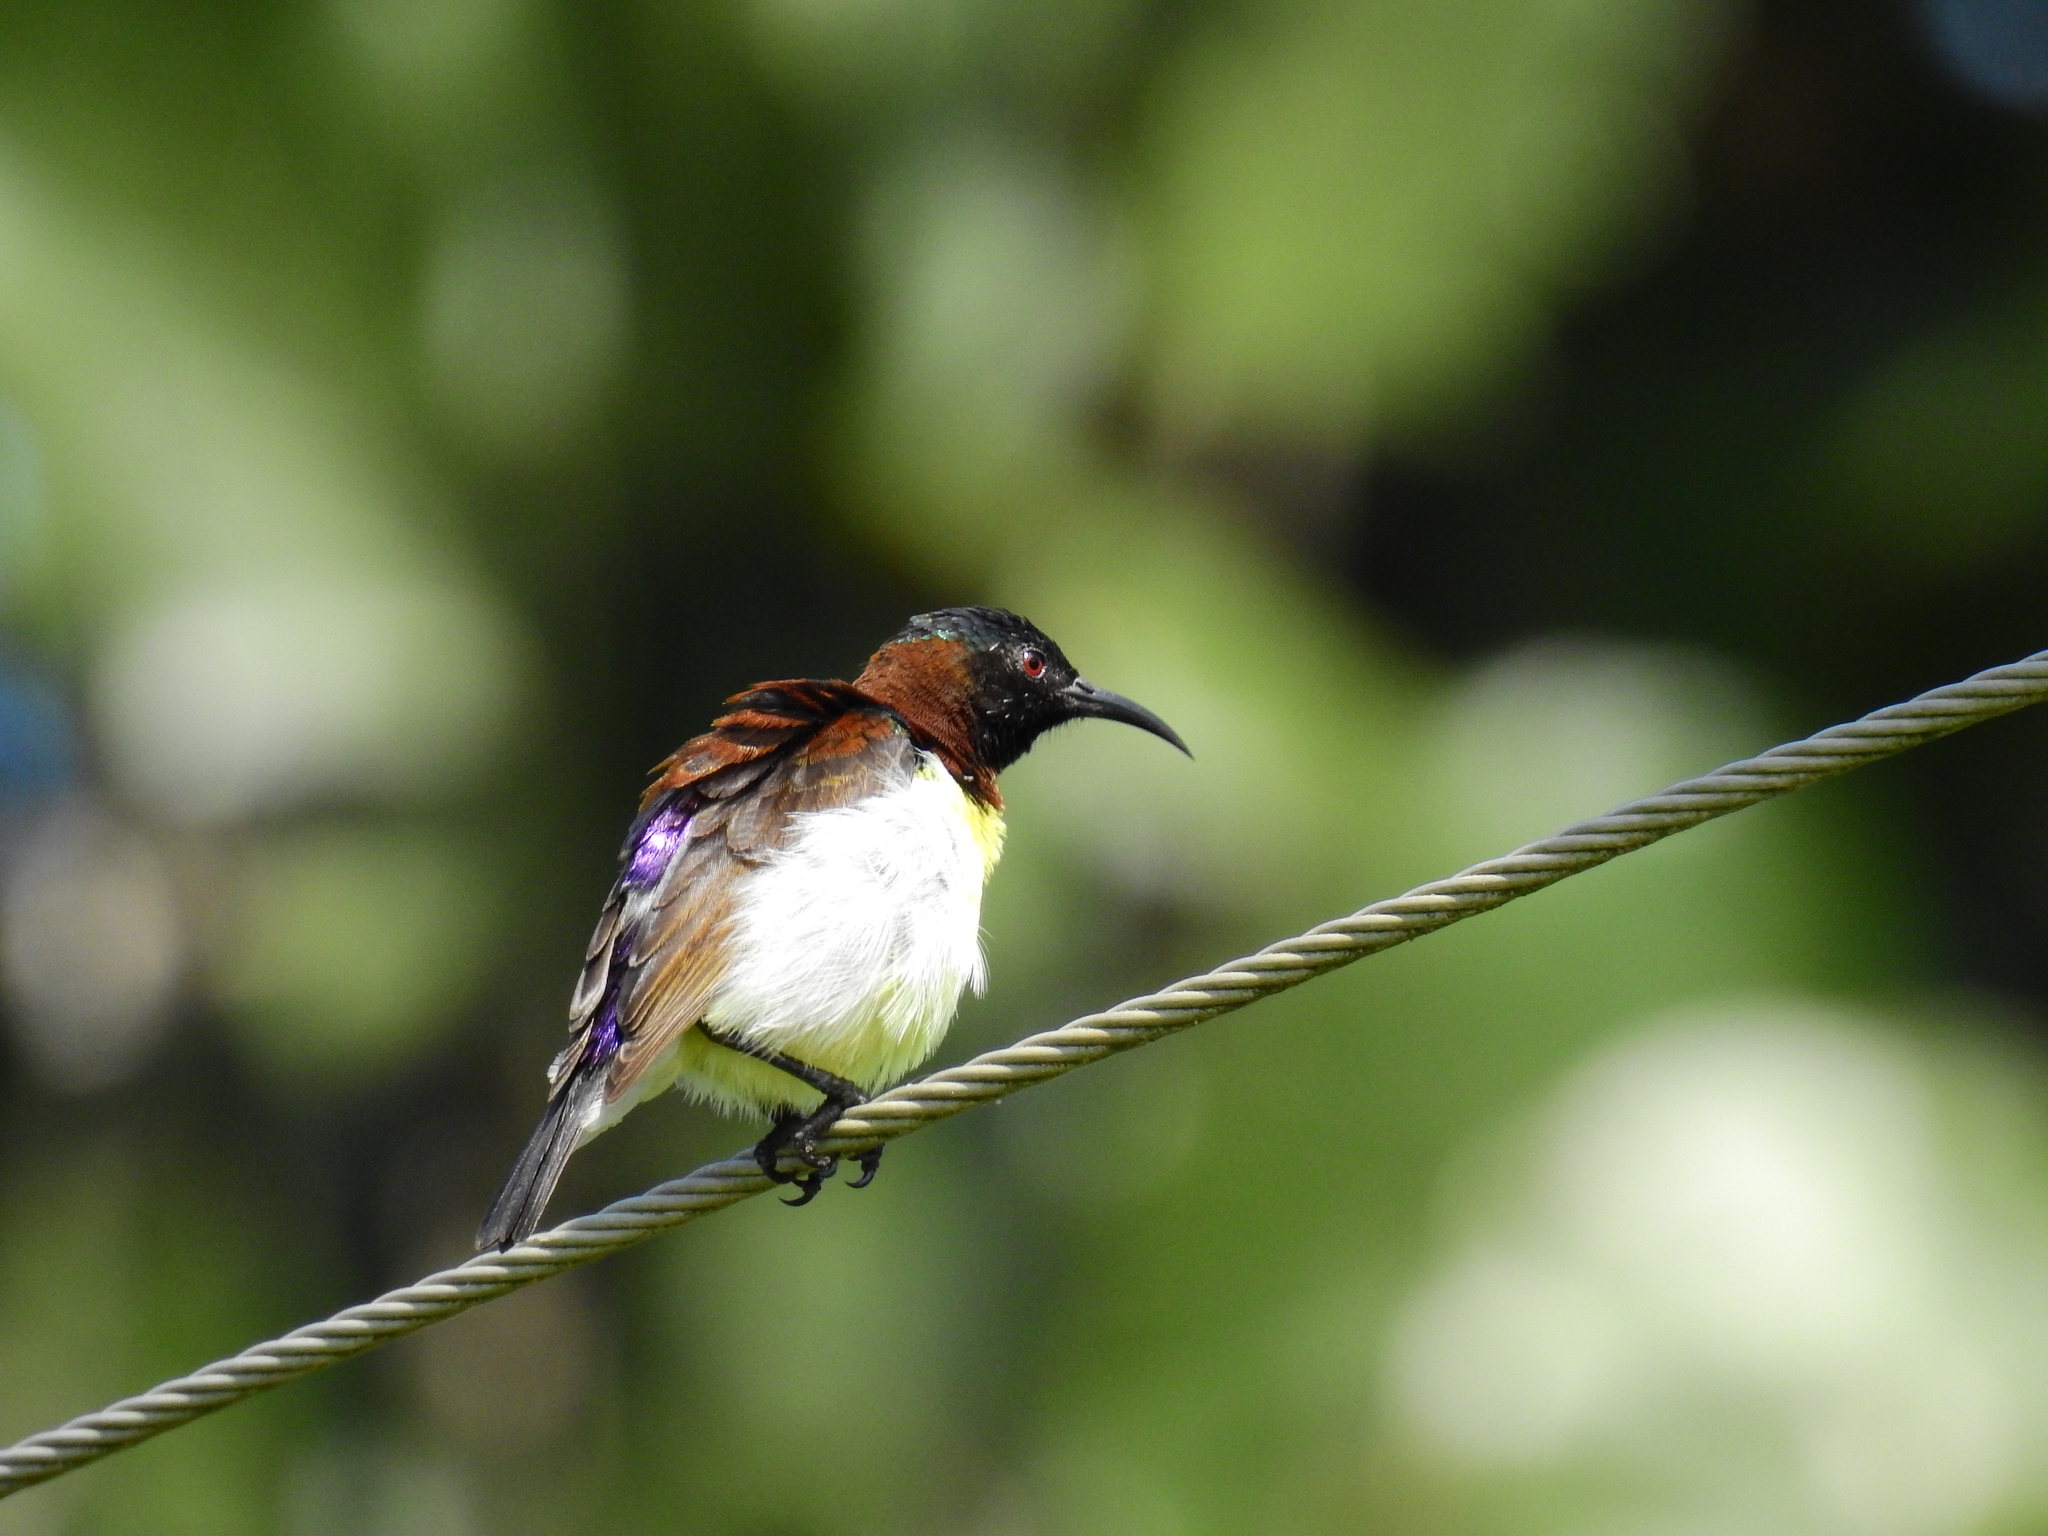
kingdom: Animalia
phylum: Chordata
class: Aves
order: Passeriformes
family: Nectariniidae
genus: Leptocoma
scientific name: Leptocoma zeylonica
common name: Purple-rumped sunbird
